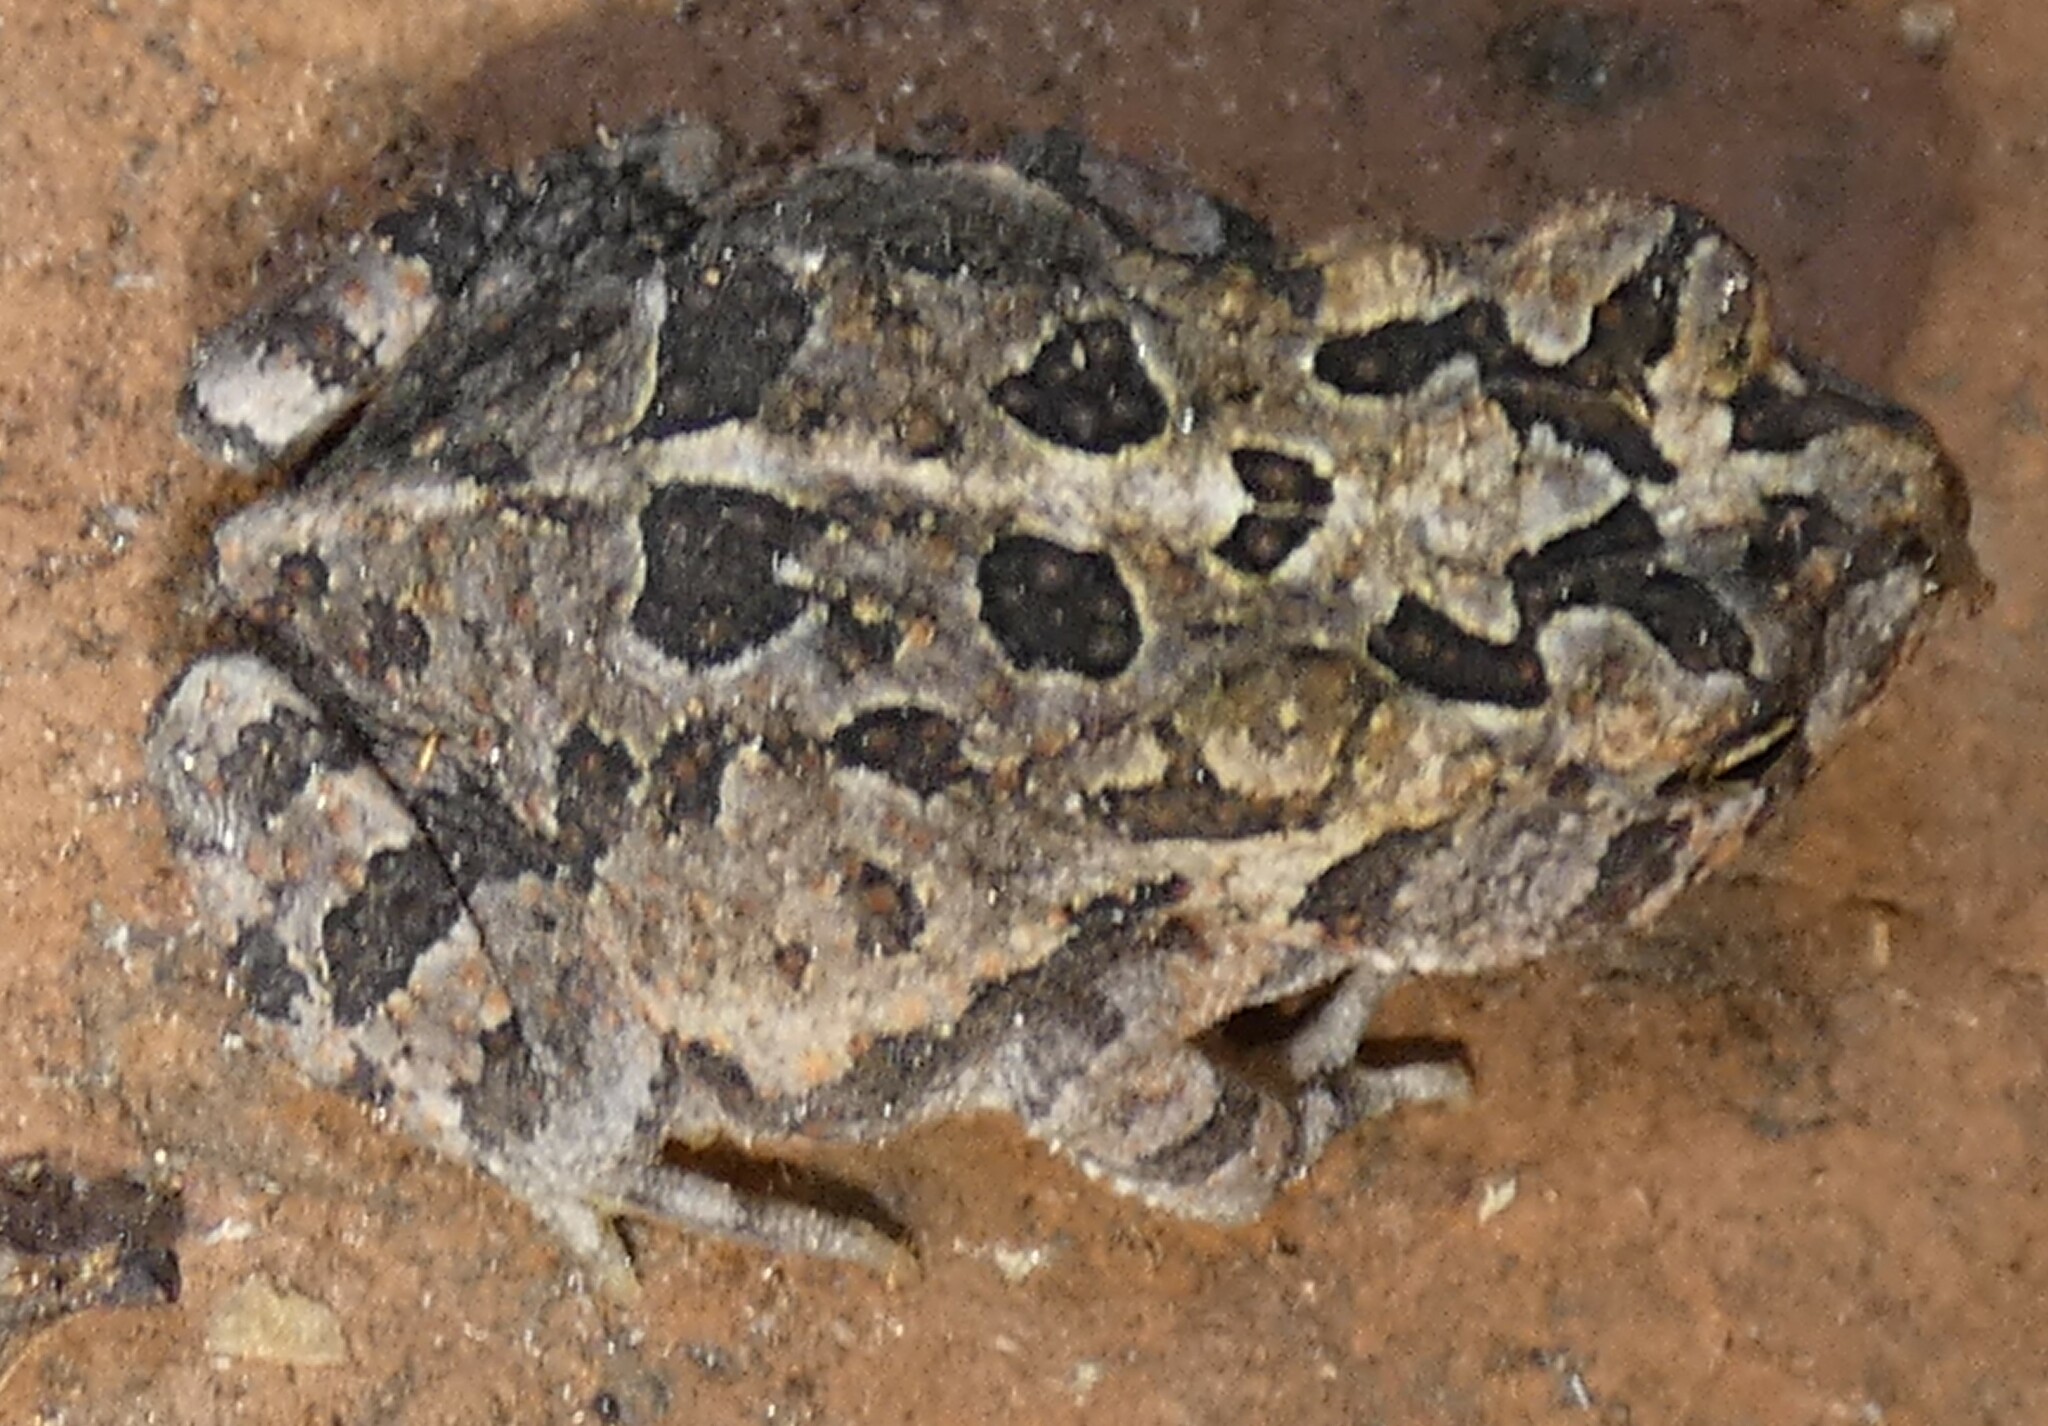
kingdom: Animalia
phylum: Chordata
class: Amphibia
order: Anura
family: Bufonidae
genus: Anaxyrus
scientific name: Anaxyrus terrestris
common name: Southern toad
